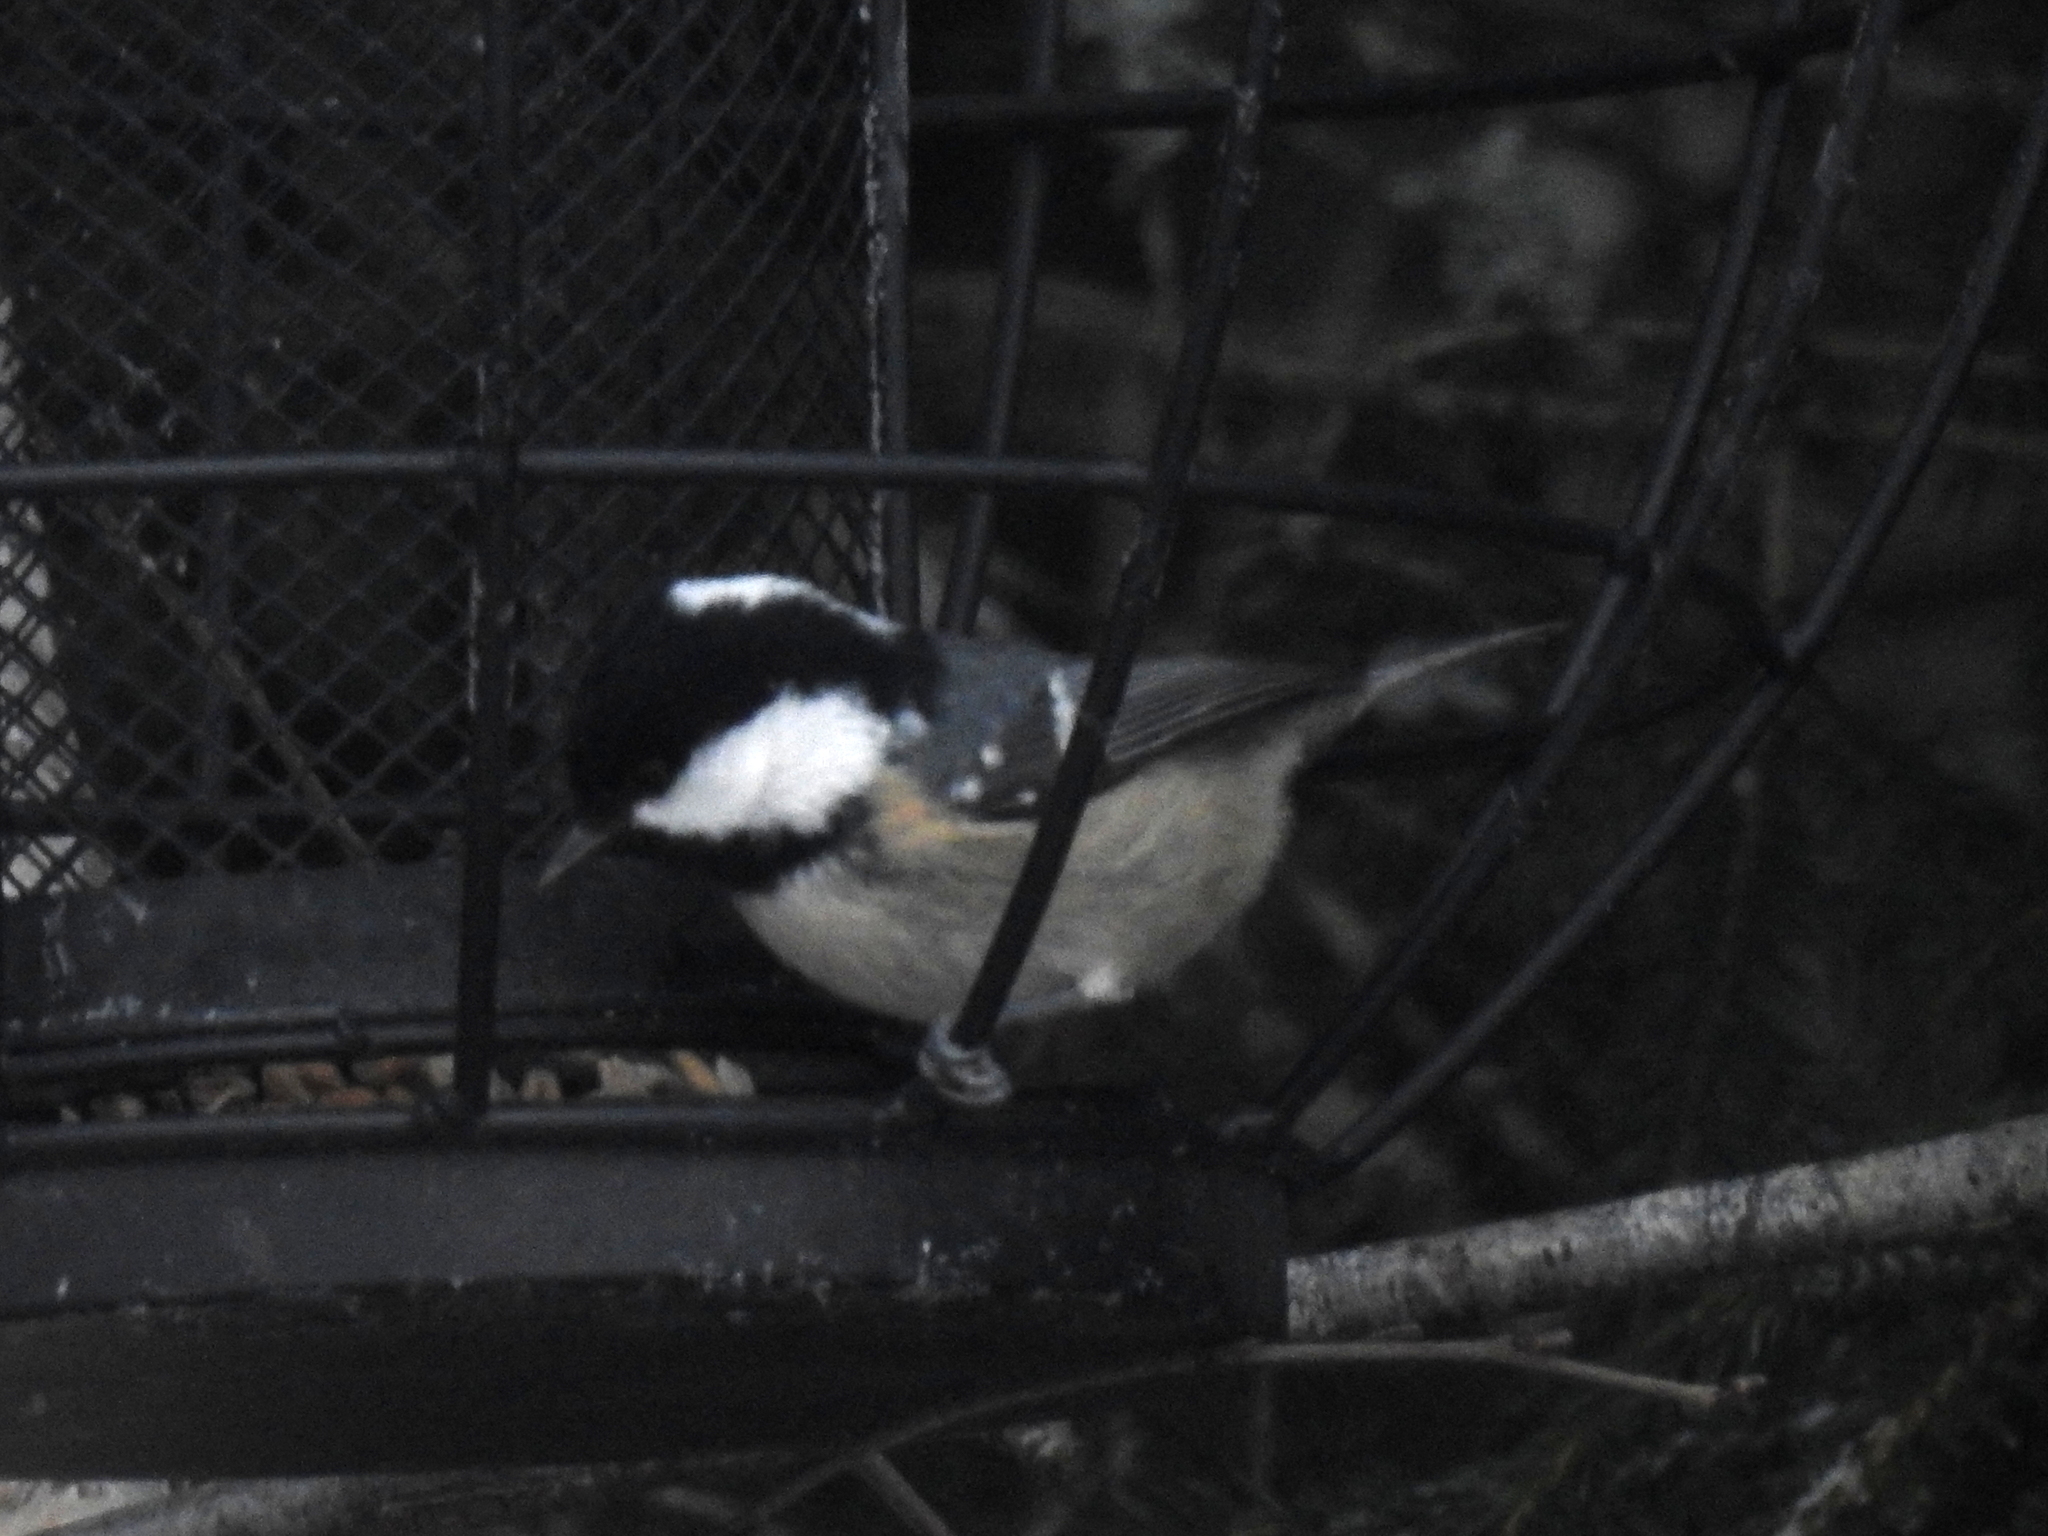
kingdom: Animalia
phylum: Chordata
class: Aves
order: Passeriformes
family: Paridae
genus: Periparus
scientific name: Periparus ater
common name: Coal tit
